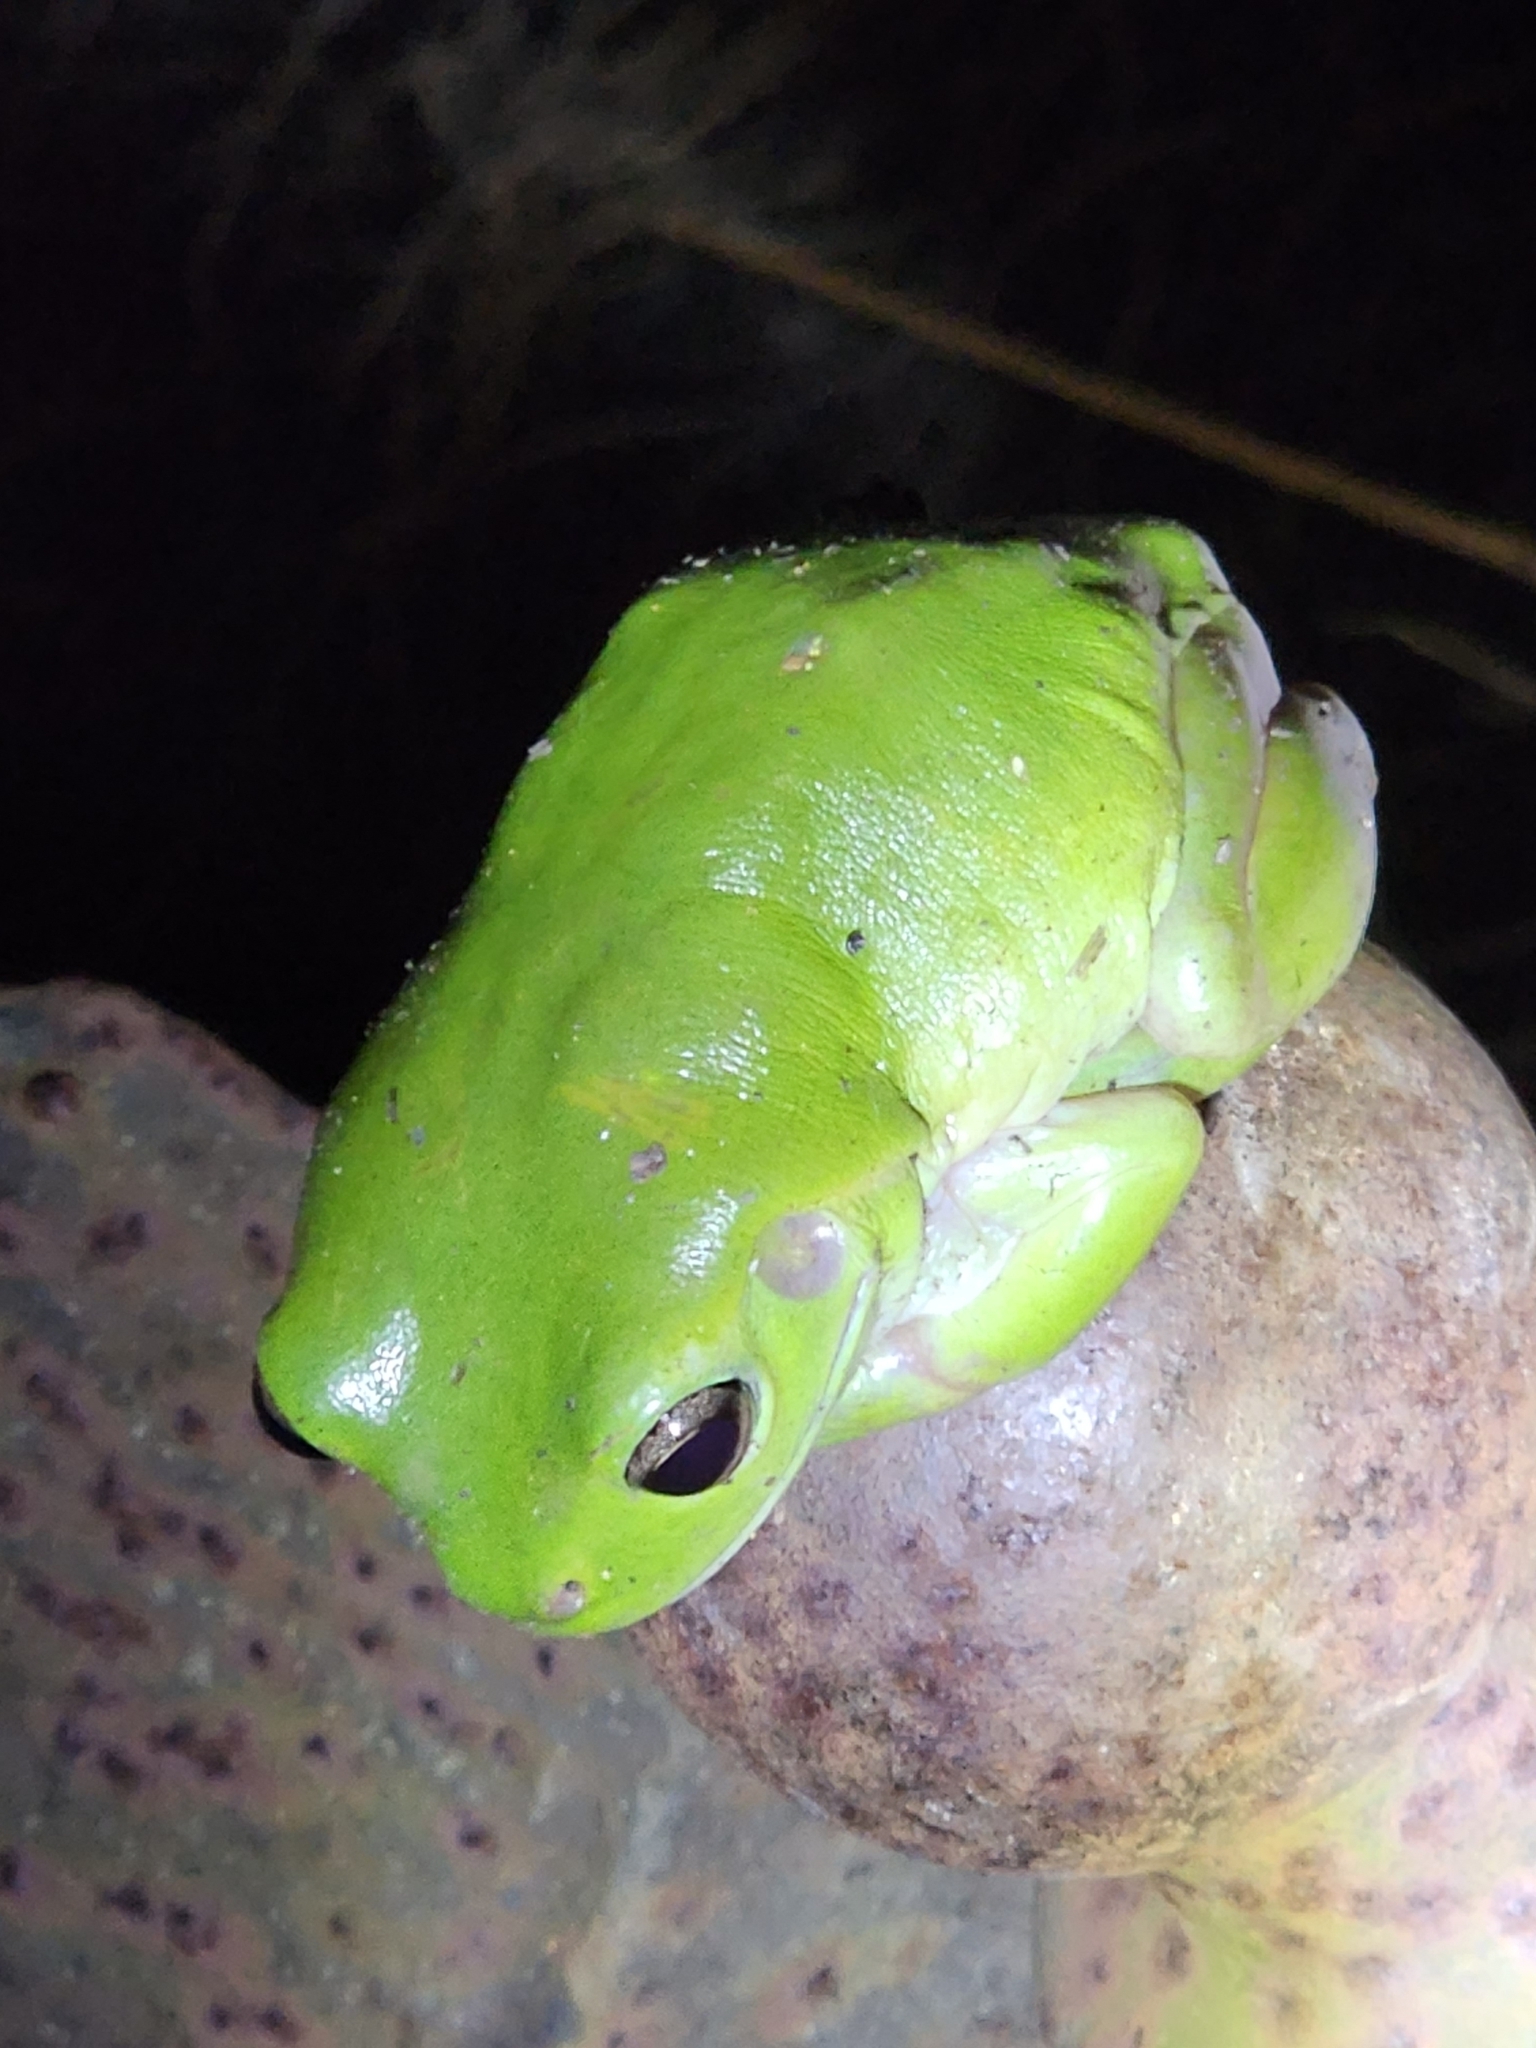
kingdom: Animalia
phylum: Chordata
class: Amphibia
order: Anura
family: Pelodryadidae
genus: Ranoidea
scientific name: Ranoidea caerulea
